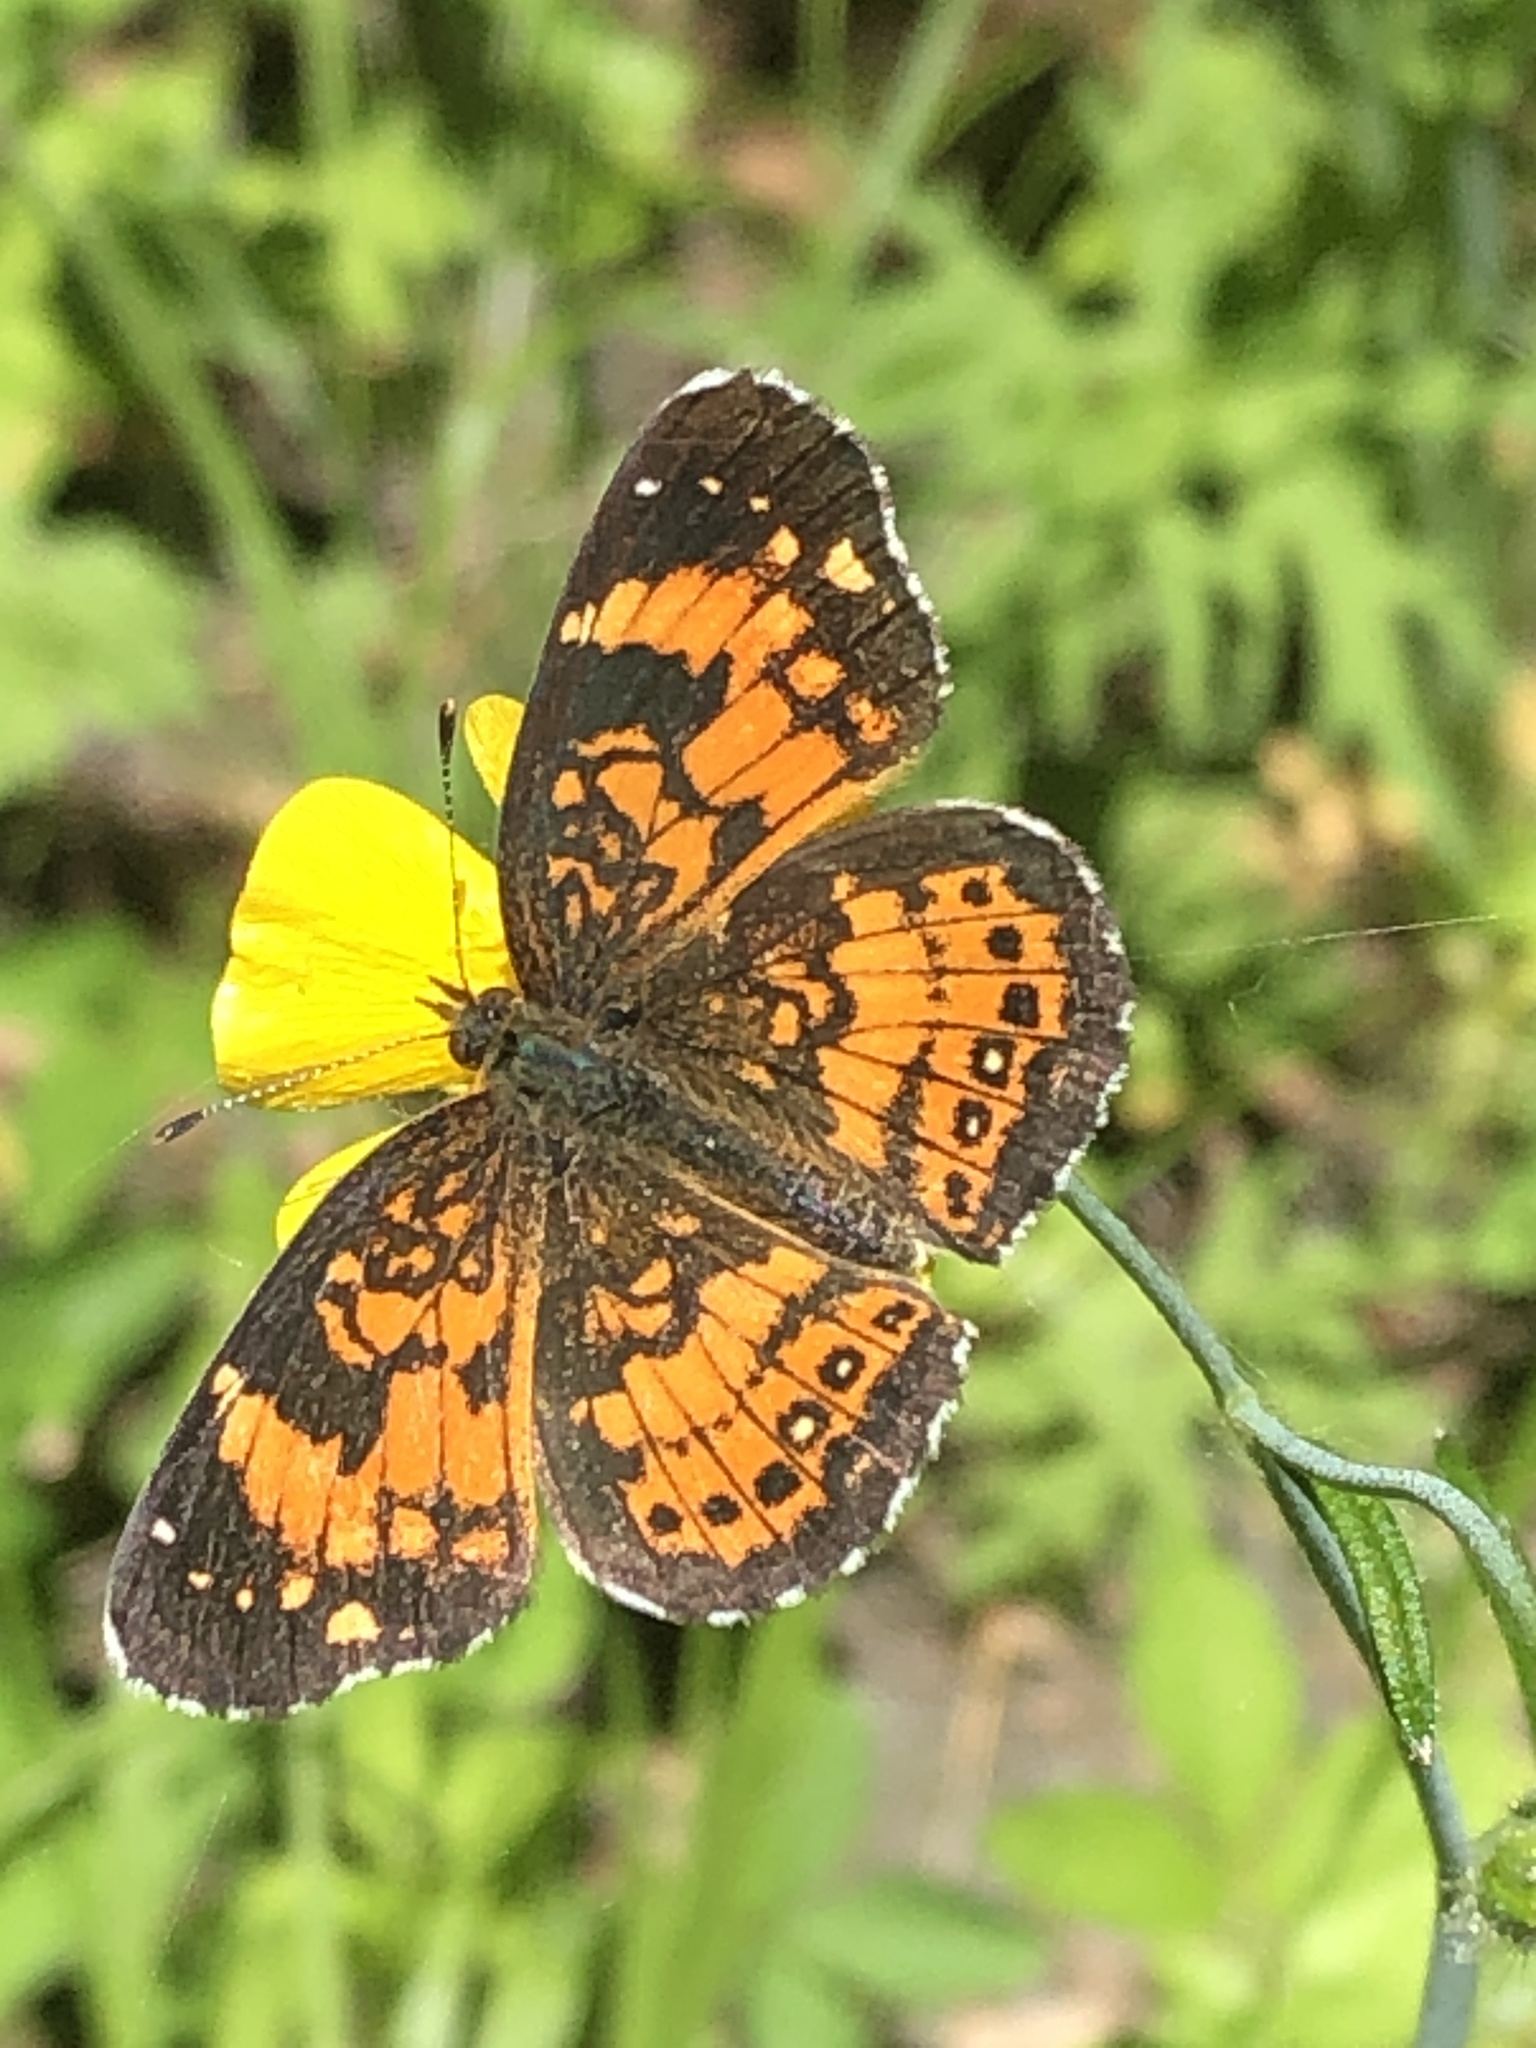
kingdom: Animalia
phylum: Arthropoda
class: Insecta
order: Lepidoptera
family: Nymphalidae
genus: Chlosyne
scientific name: Chlosyne nycteis
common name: Silvery checkerspot
